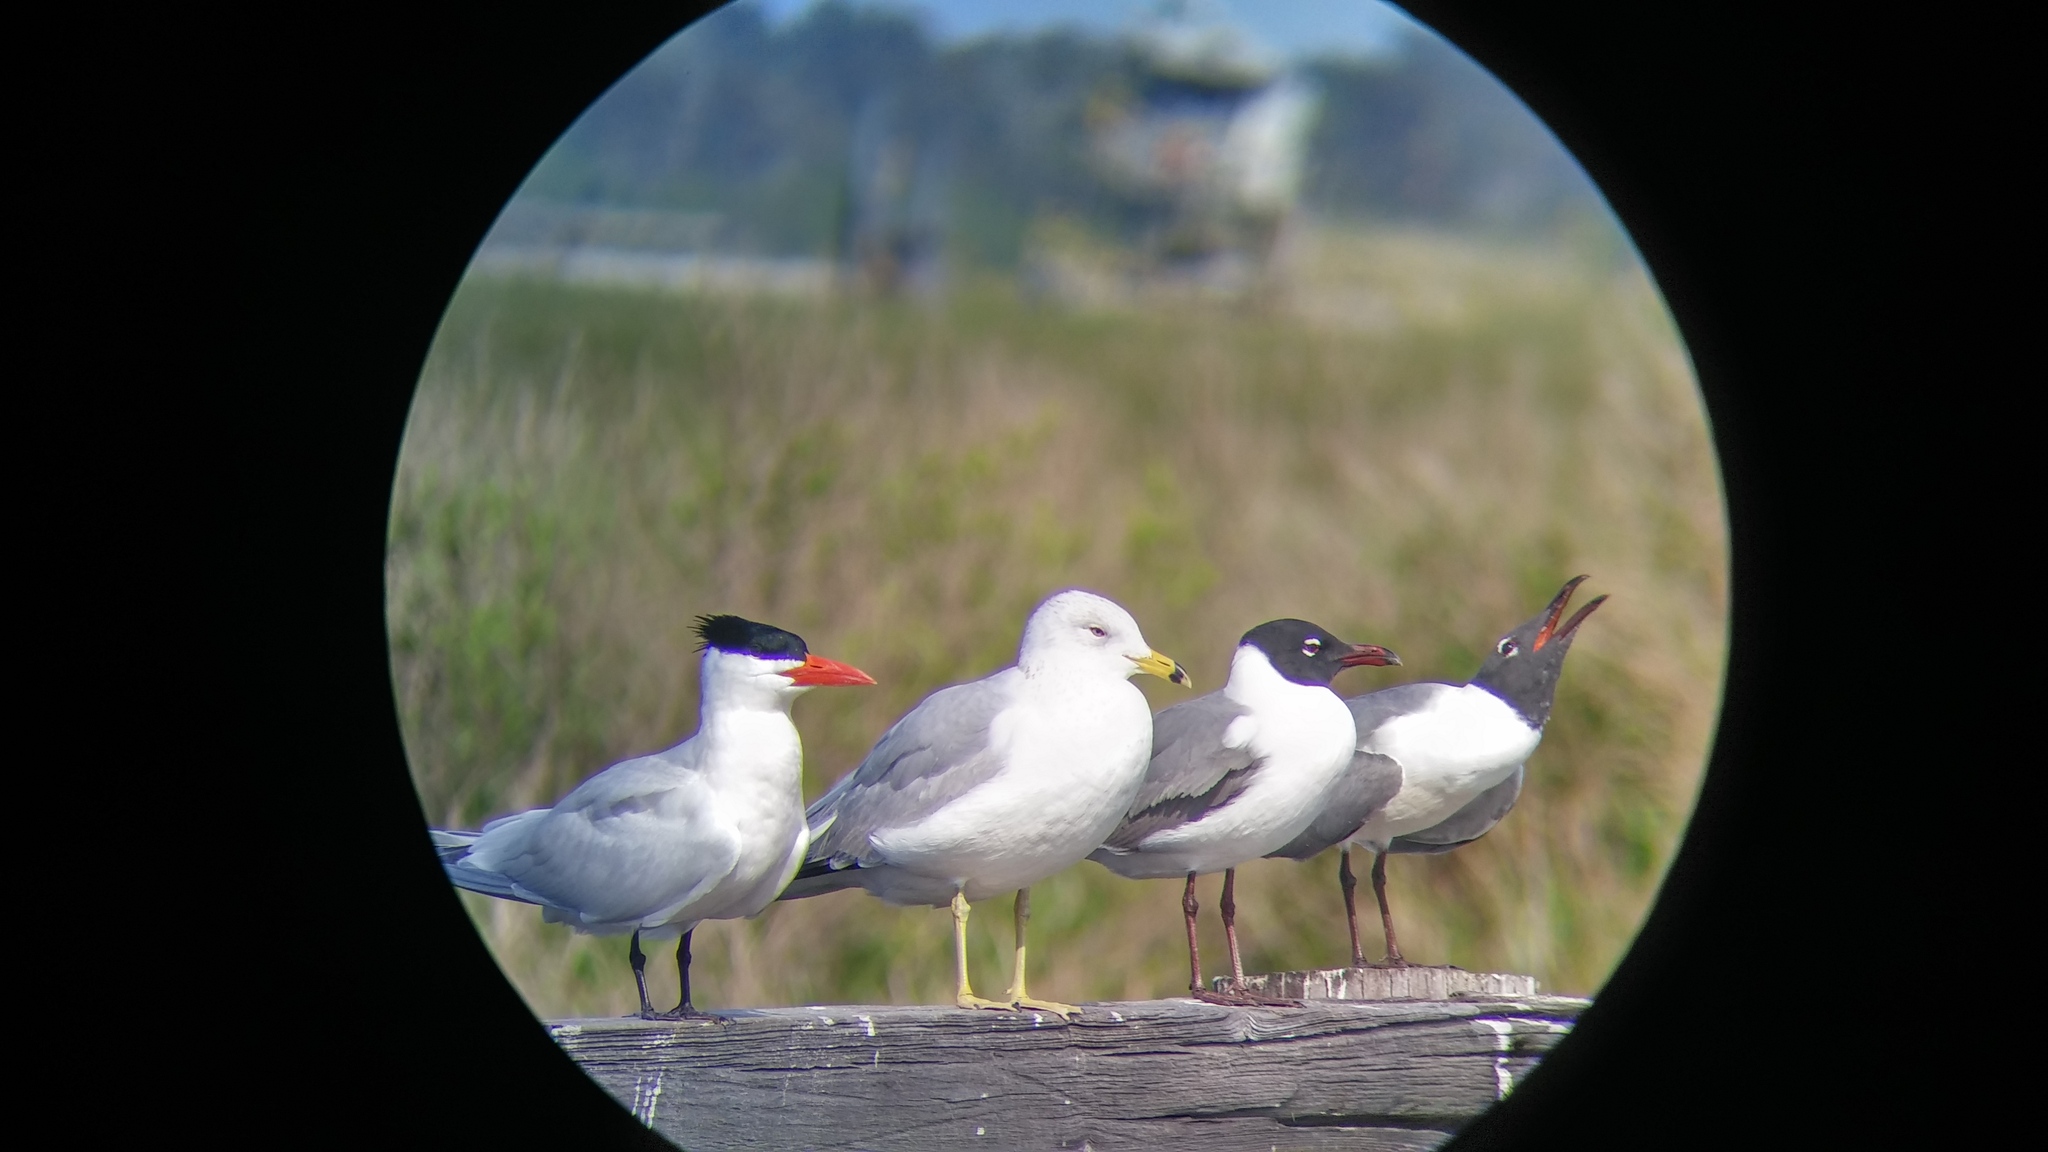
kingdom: Animalia
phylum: Chordata
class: Aves
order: Charadriiformes
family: Laridae
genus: Hydroprogne
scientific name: Hydroprogne caspia
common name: Caspian tern
